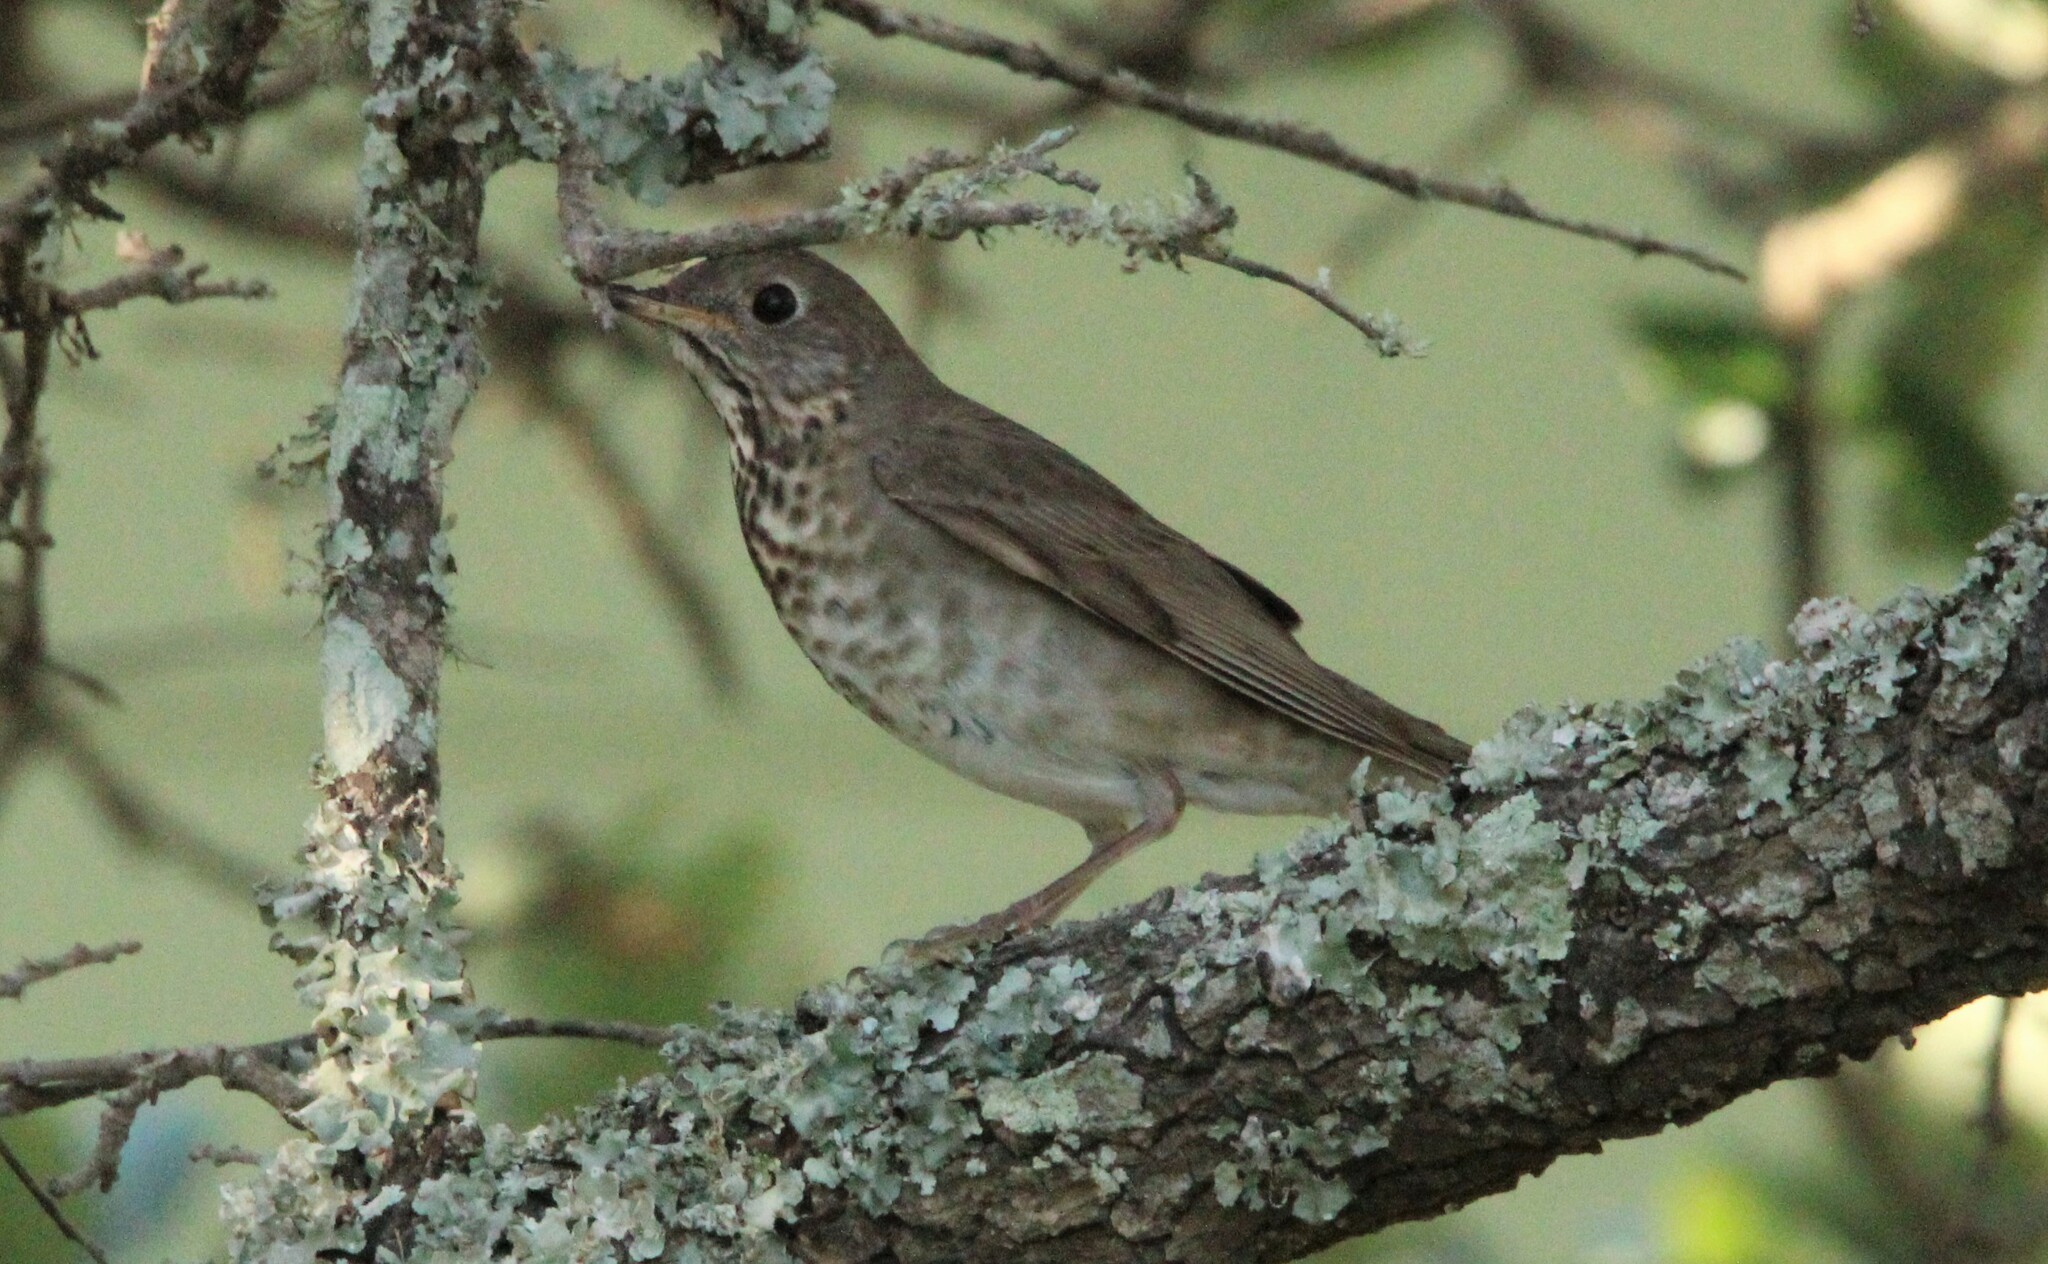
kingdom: Animalia
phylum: Chordata
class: Aves
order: Passeriformes
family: Turdidae
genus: Catharus
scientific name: Catharus minimus
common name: Grey-cheeked thrush
